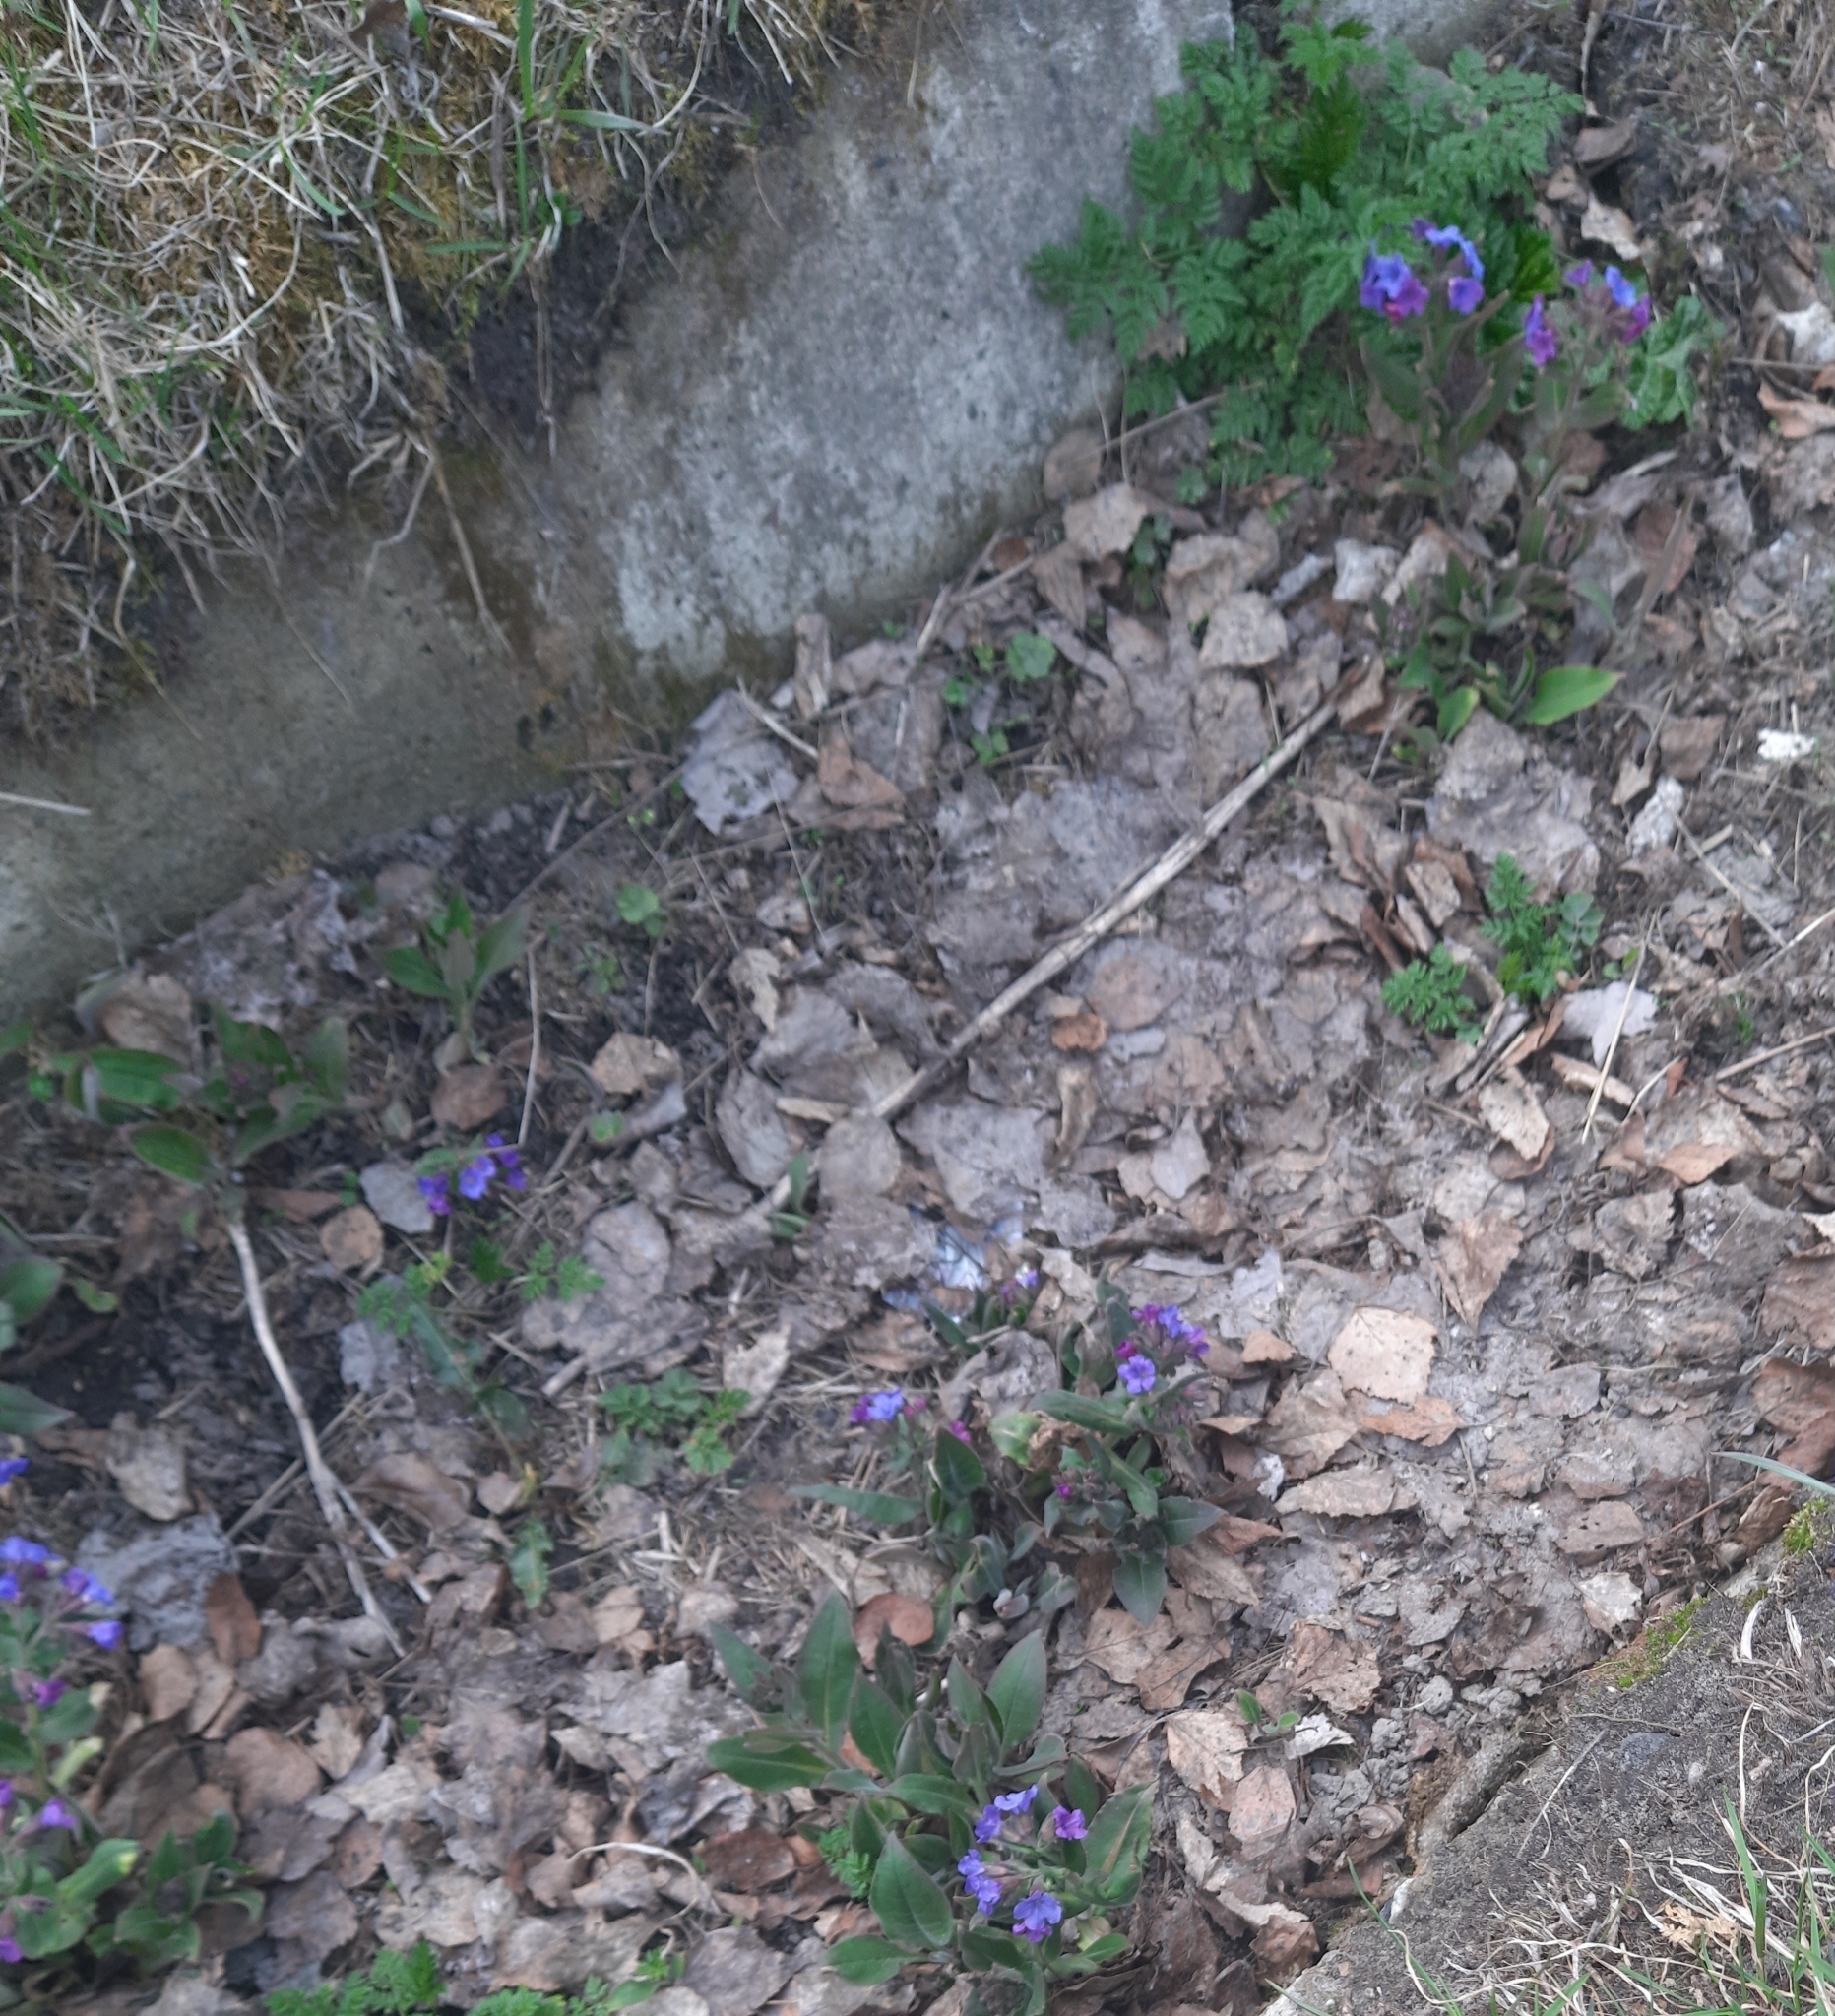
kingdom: Plantae
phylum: Tracheophyta
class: Magnoliopsida
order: Boraginales
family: Boraginaceae
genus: Pulmonaria
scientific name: Pulmonaria mollis
